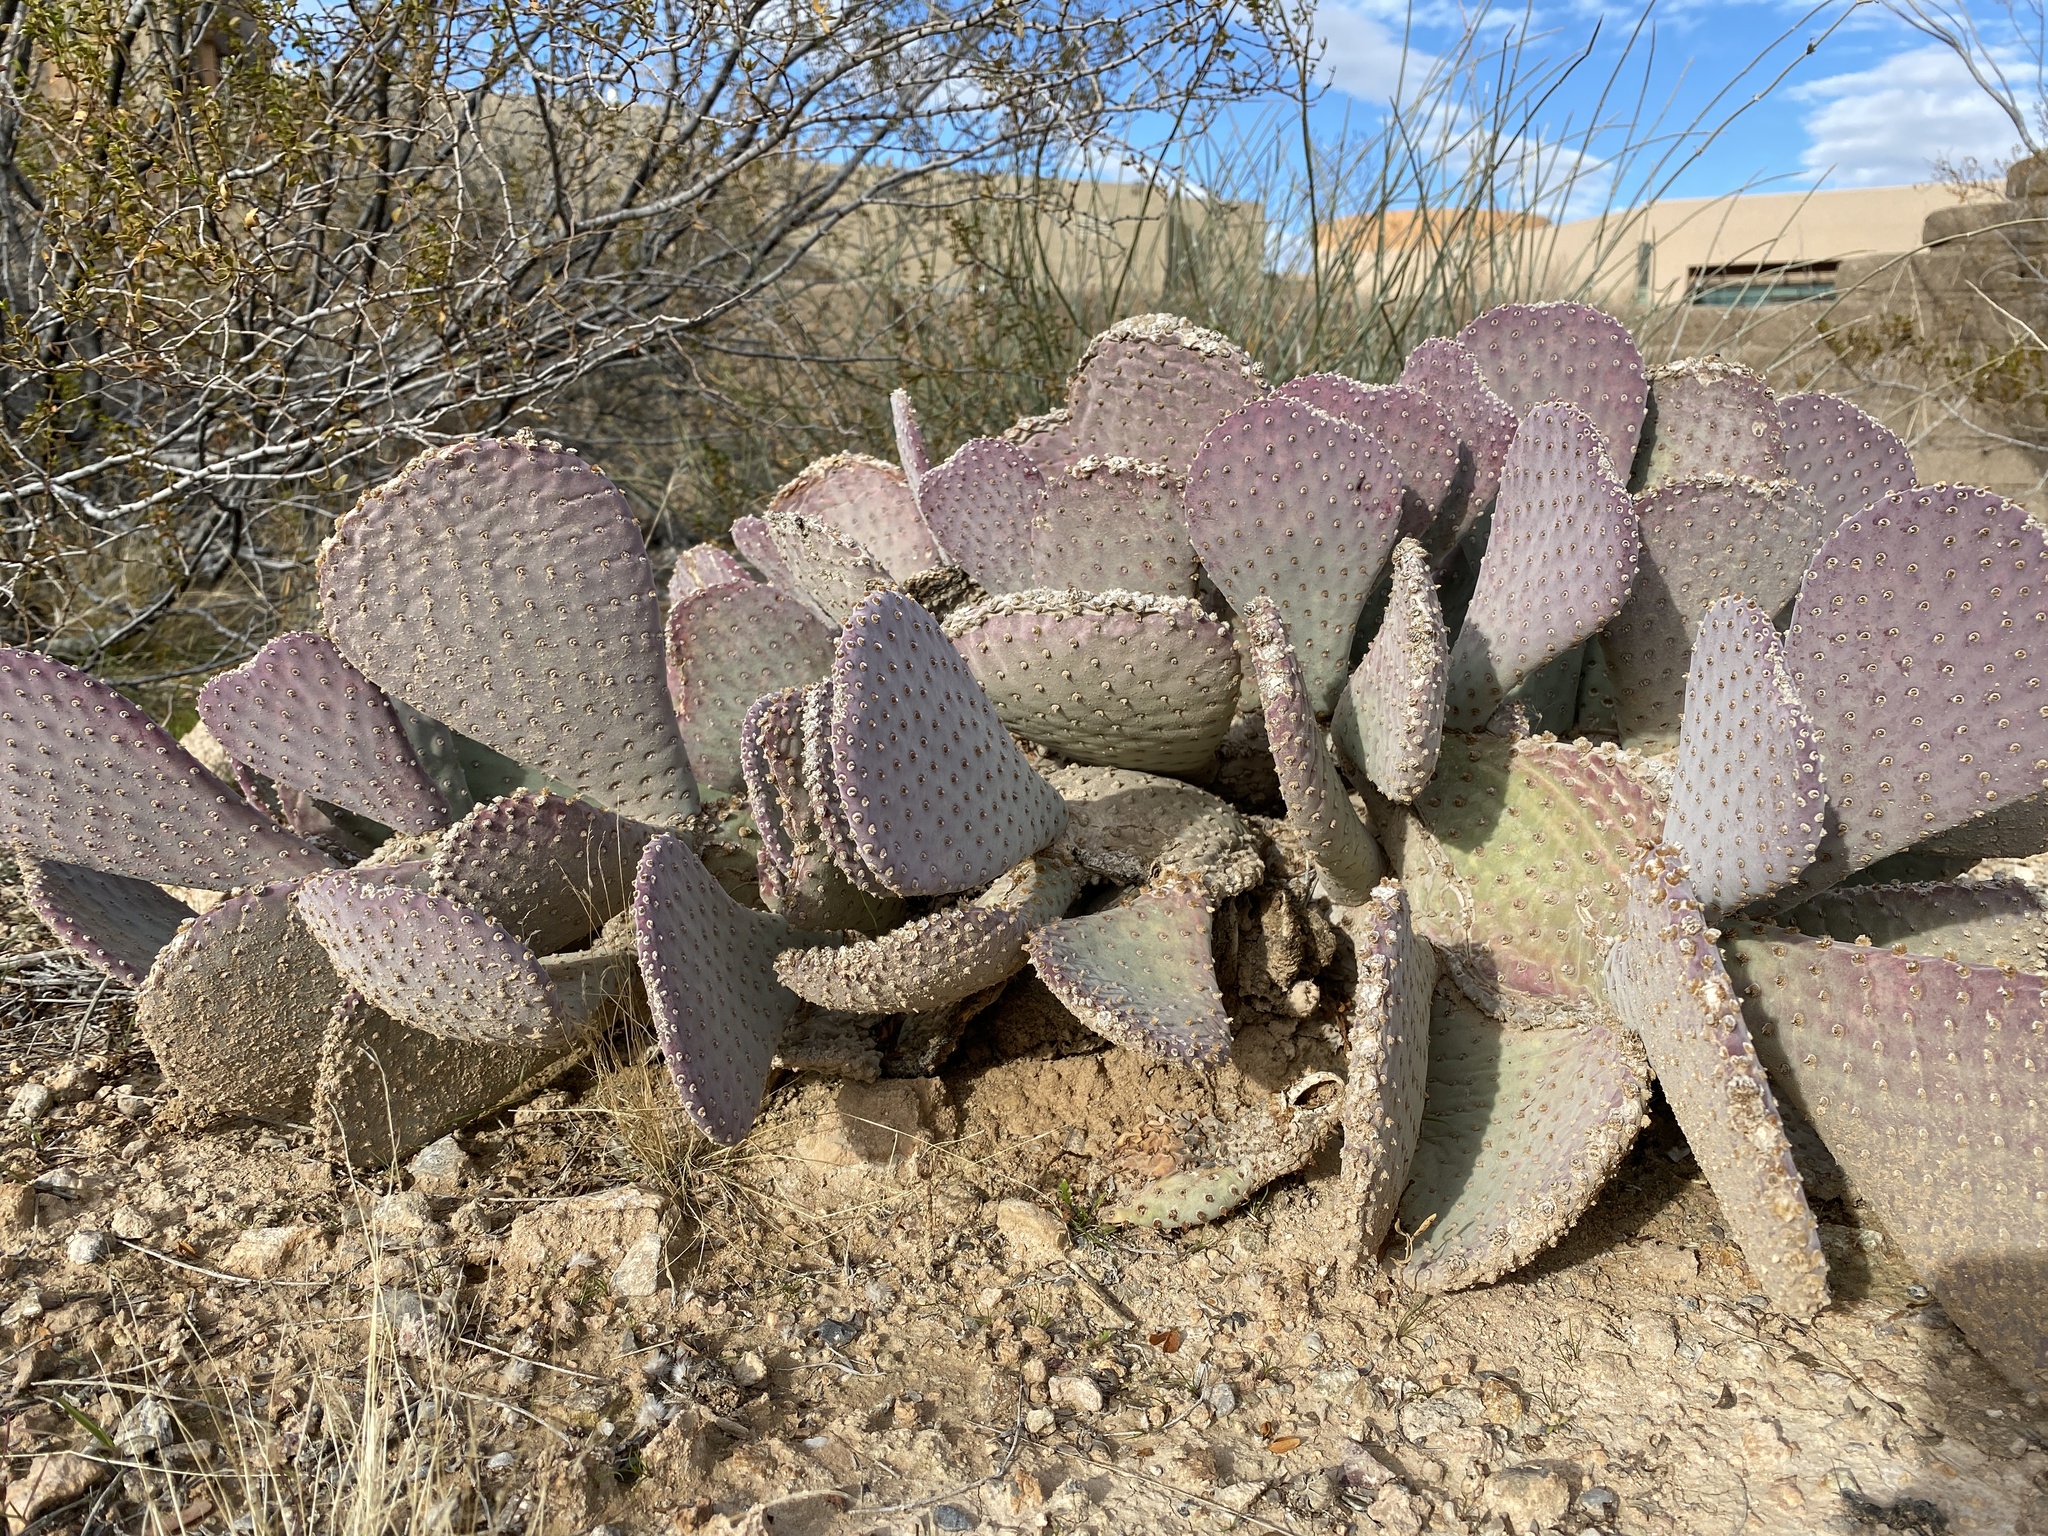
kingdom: Plantae
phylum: Tracheophyta
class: Magnoliopsida
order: Caryophyllales
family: Cactaceae
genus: Opuntia
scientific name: Opuntia basilaris
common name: Beavertail prickly-pear
